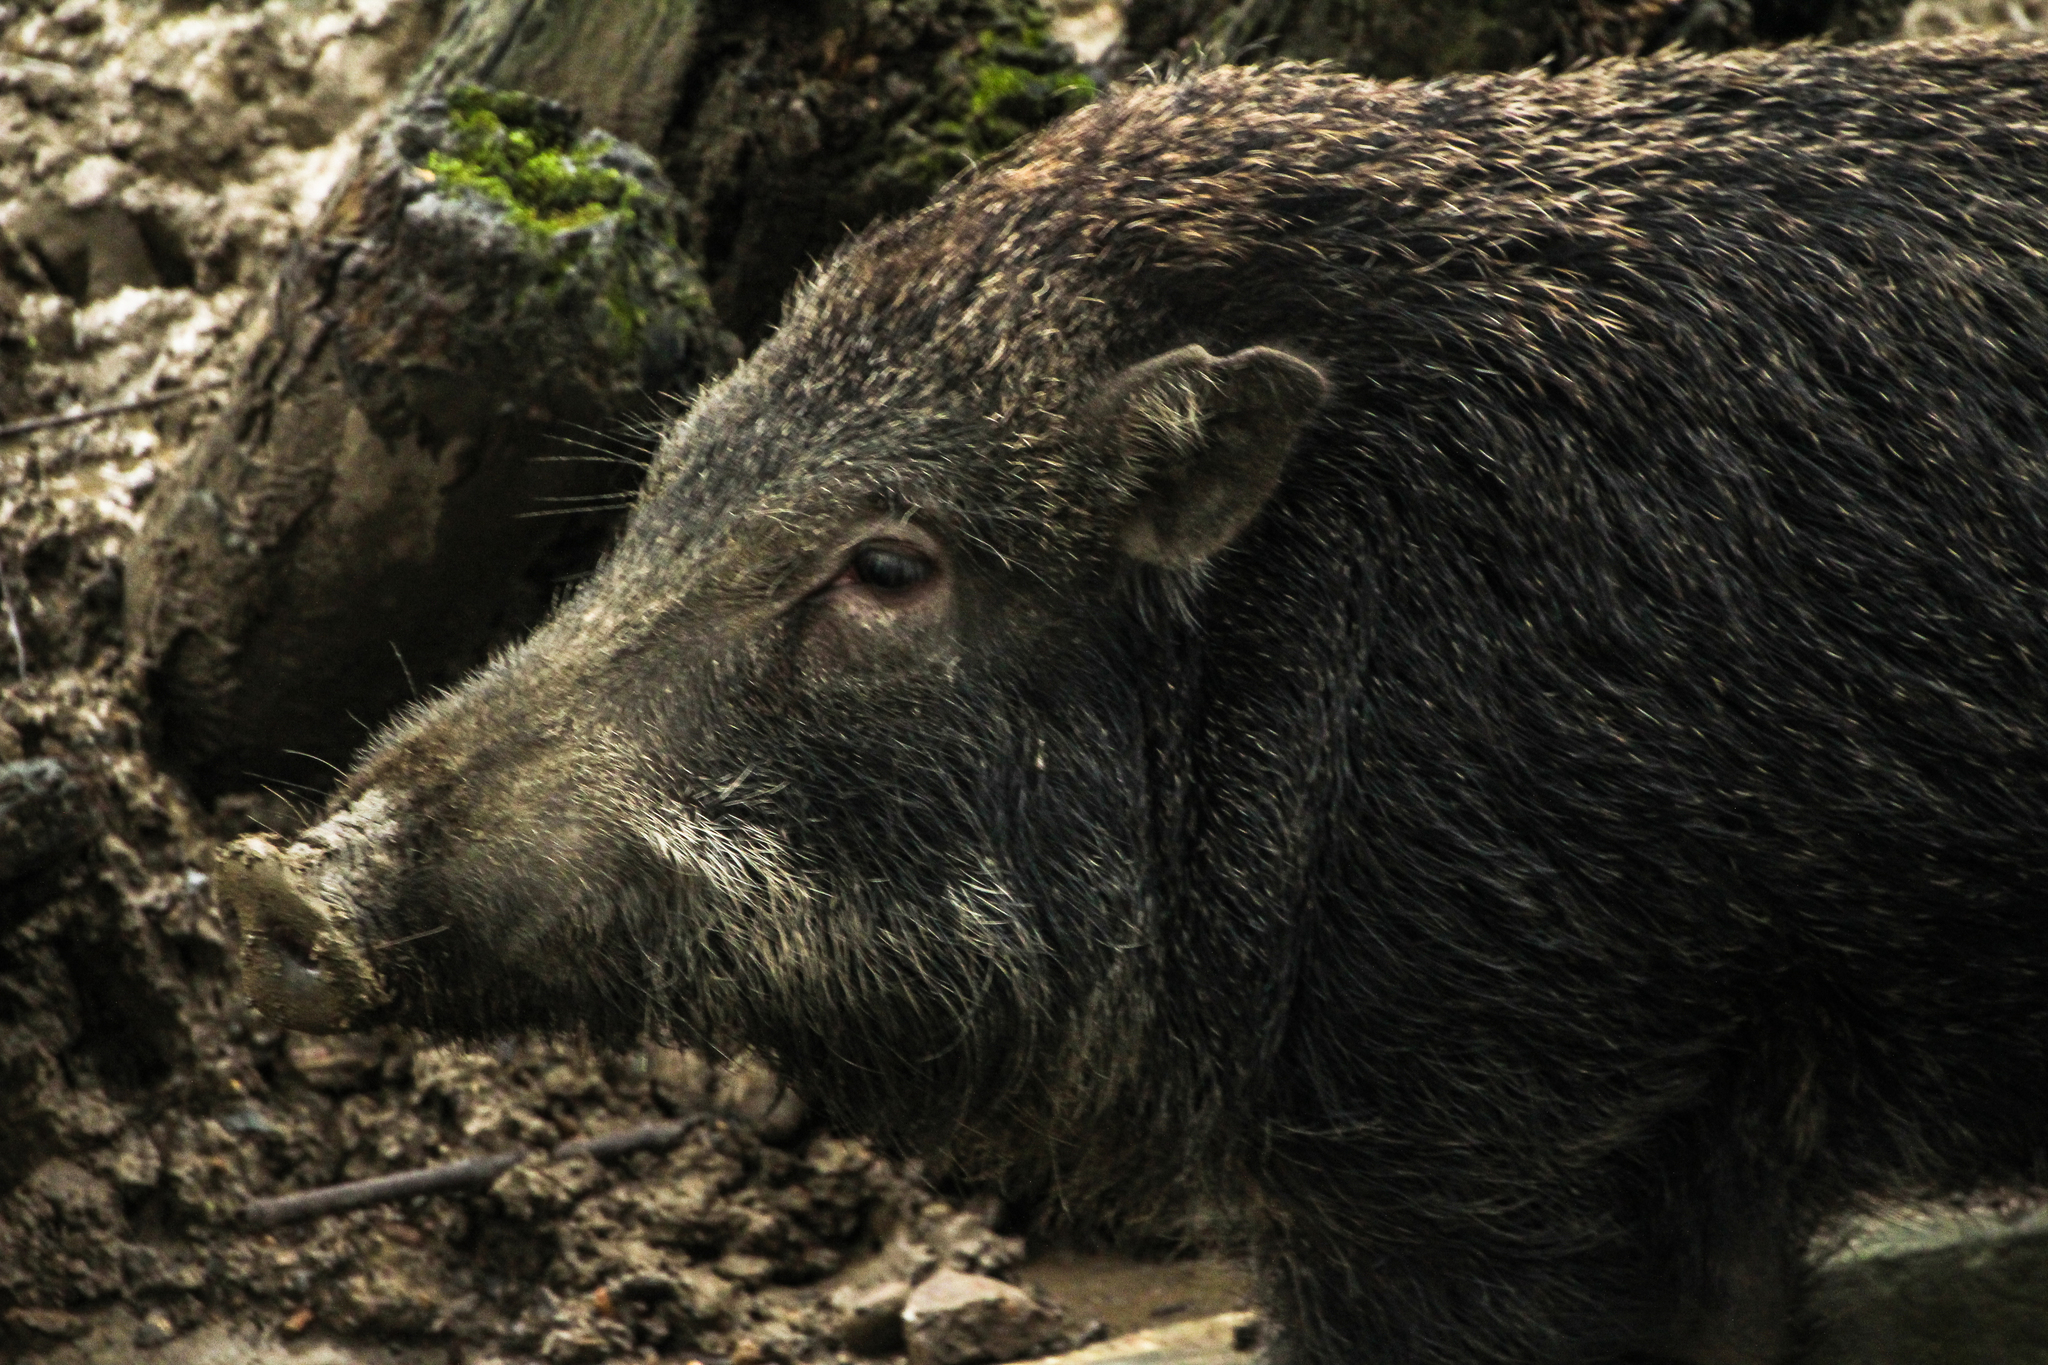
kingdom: Animalia
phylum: Chordata
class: Mammalia
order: Artiodactyla
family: Suidae
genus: Sus
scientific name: Sus scrofa
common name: Wild boar
